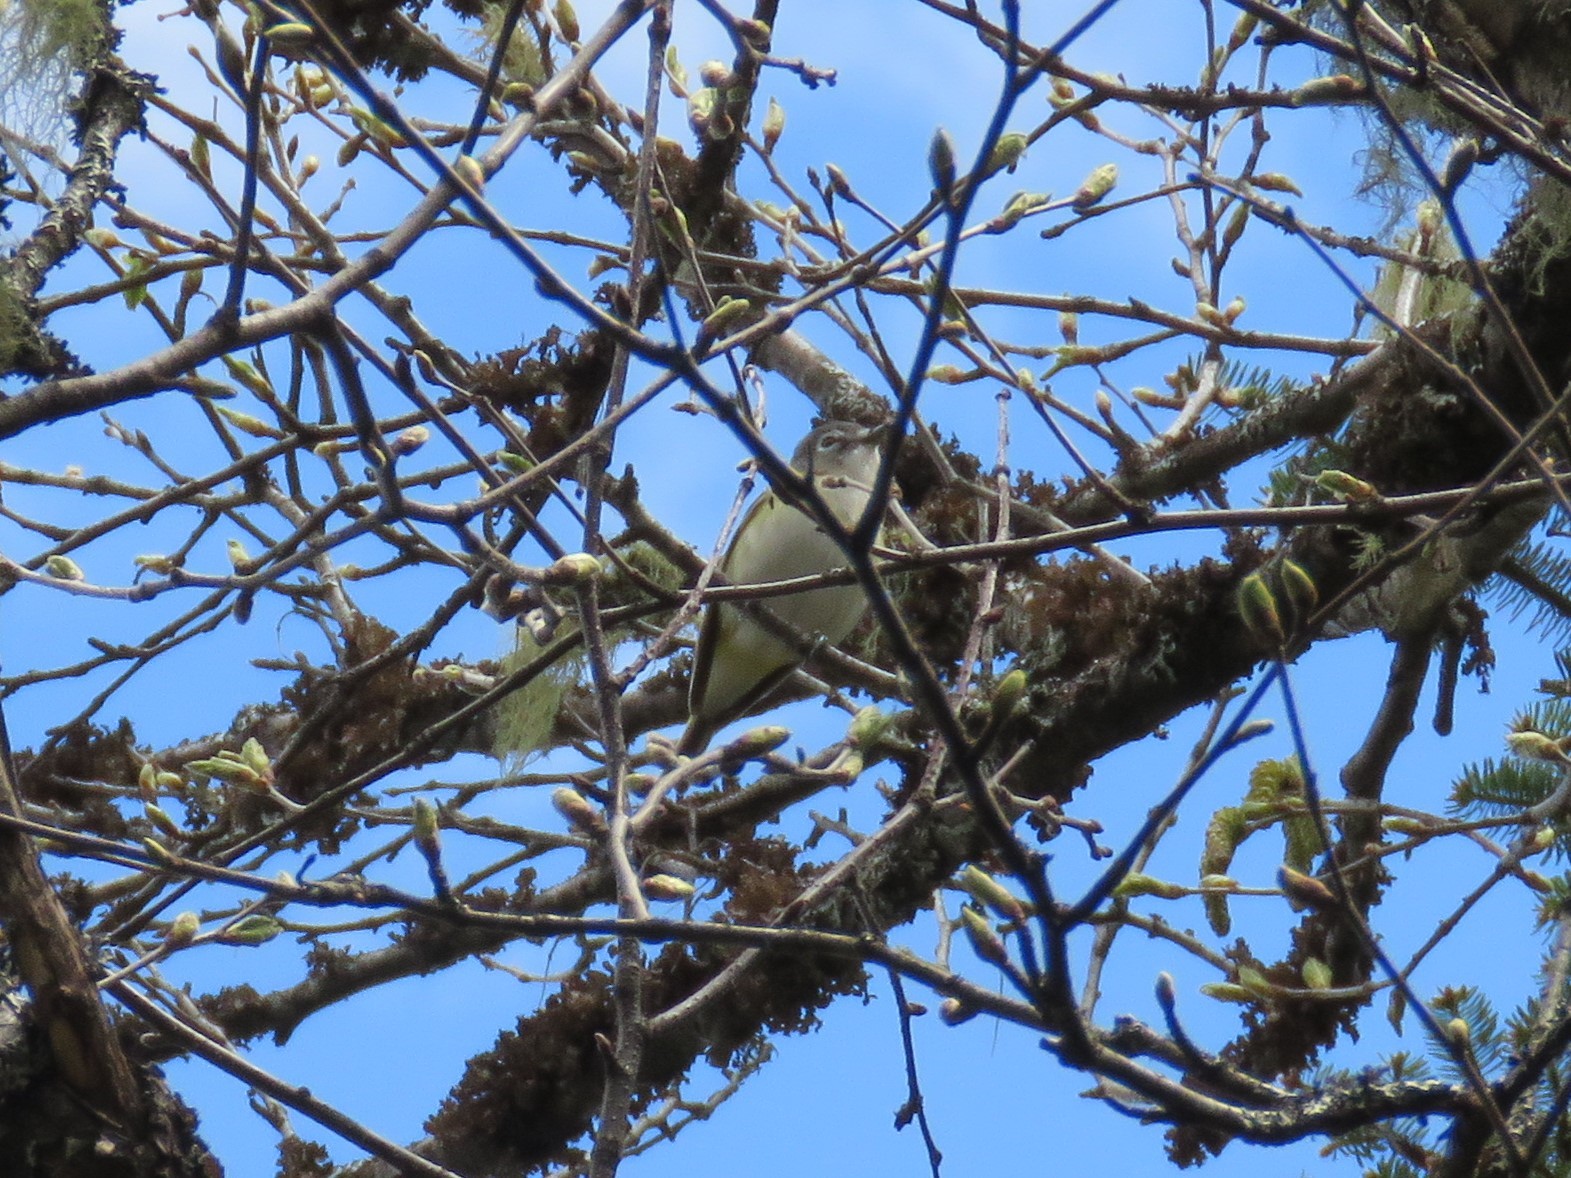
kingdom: Animalia
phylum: Chordata
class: Aves
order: Passeriformes
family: Vireonidae
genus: Vireo
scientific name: Vireo solitarius
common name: Blue-headed vireo
